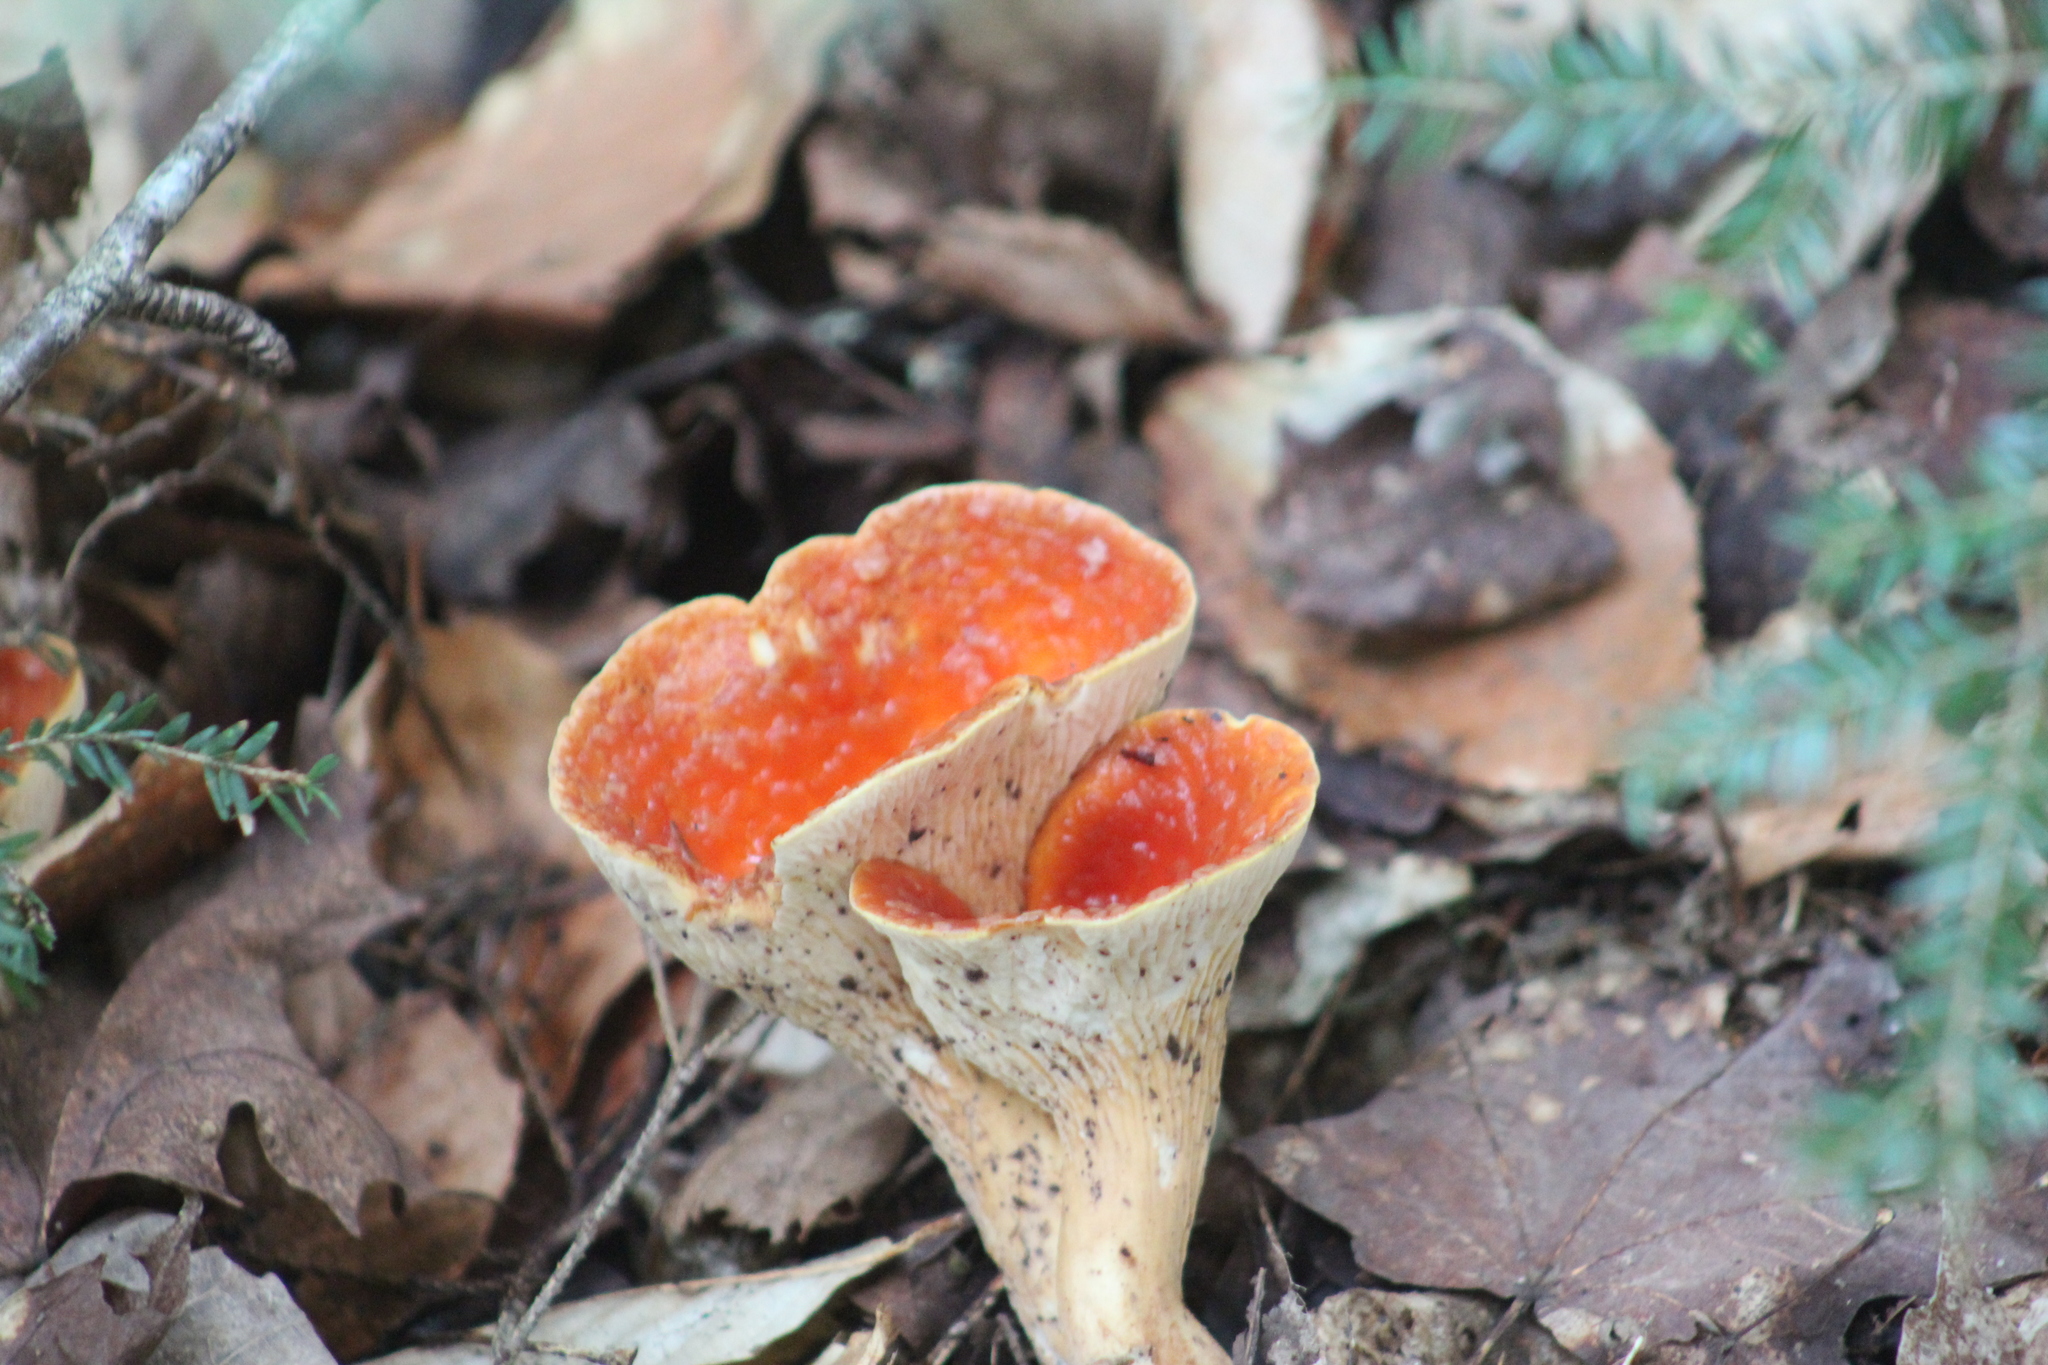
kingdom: Fungi
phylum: Basidiomycota
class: Agaricomycetes
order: Gomphales
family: Gomphaceae
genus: Turbinellus
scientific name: Turbinellus floccosus
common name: Scaly chanterelle
